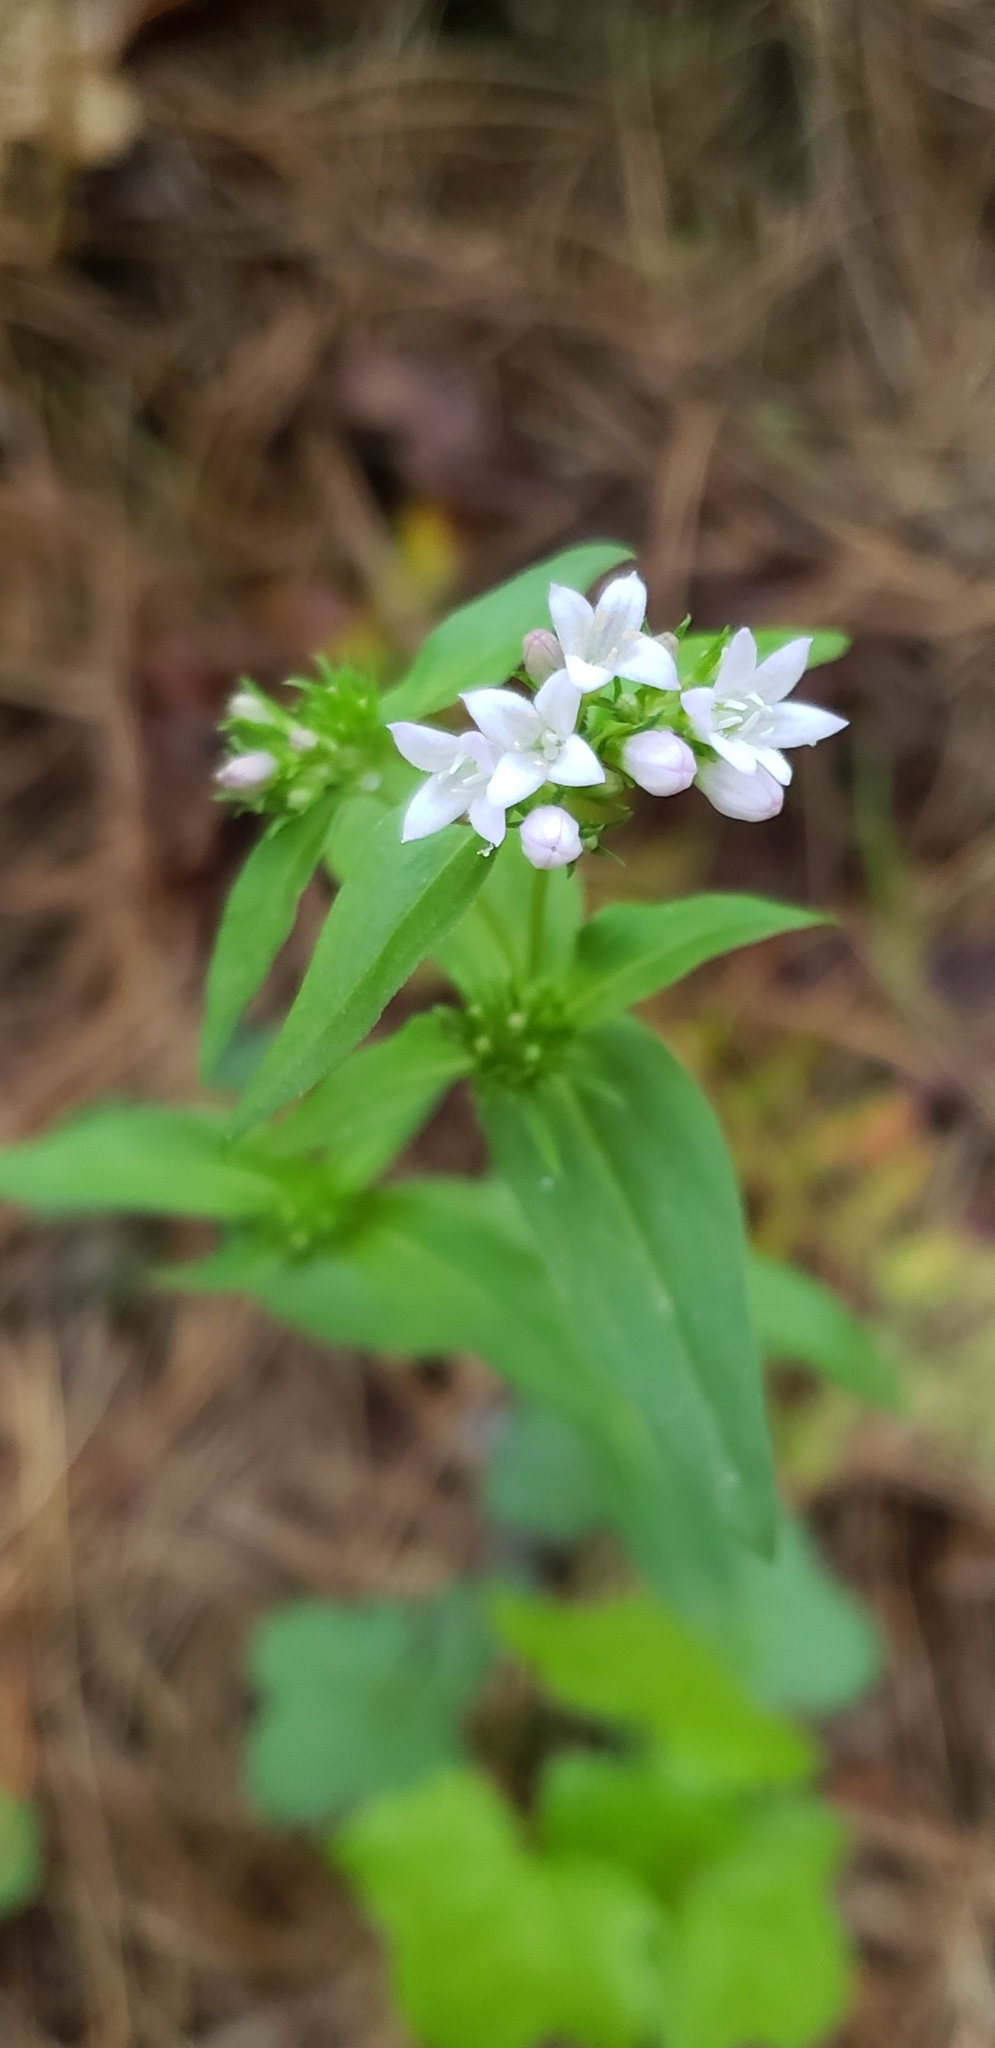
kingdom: Plantae
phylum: Tracheophyta
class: Magnoliopsida
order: Gentianales
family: Rubiaceae
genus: Houstonia
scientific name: Houstonia purpurea
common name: Summer bluet
